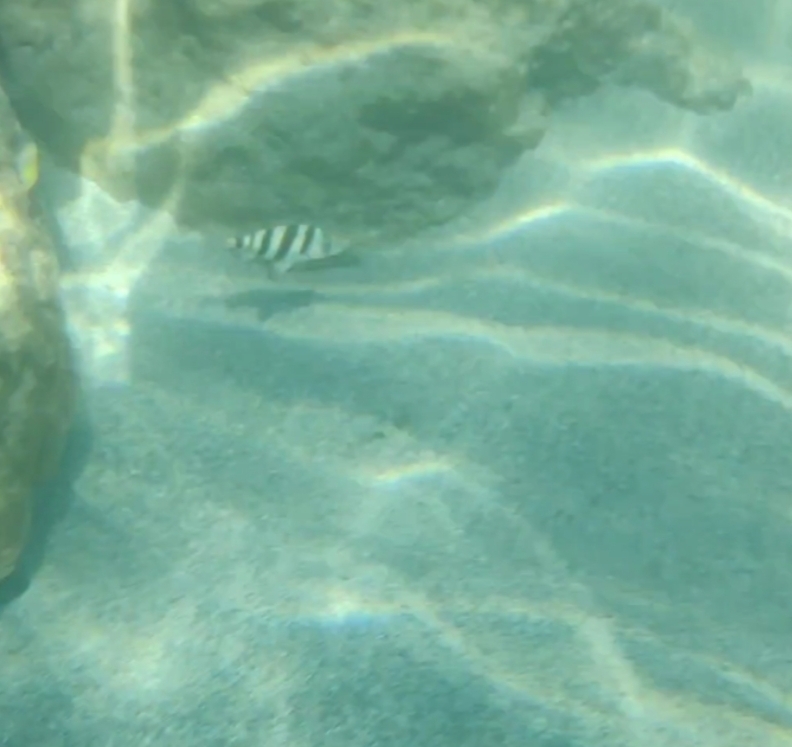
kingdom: Animalia
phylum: Chordata
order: Perciformes
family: Sparidae
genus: Diplodus
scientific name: Diplodus cervinus
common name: Oman porgy
